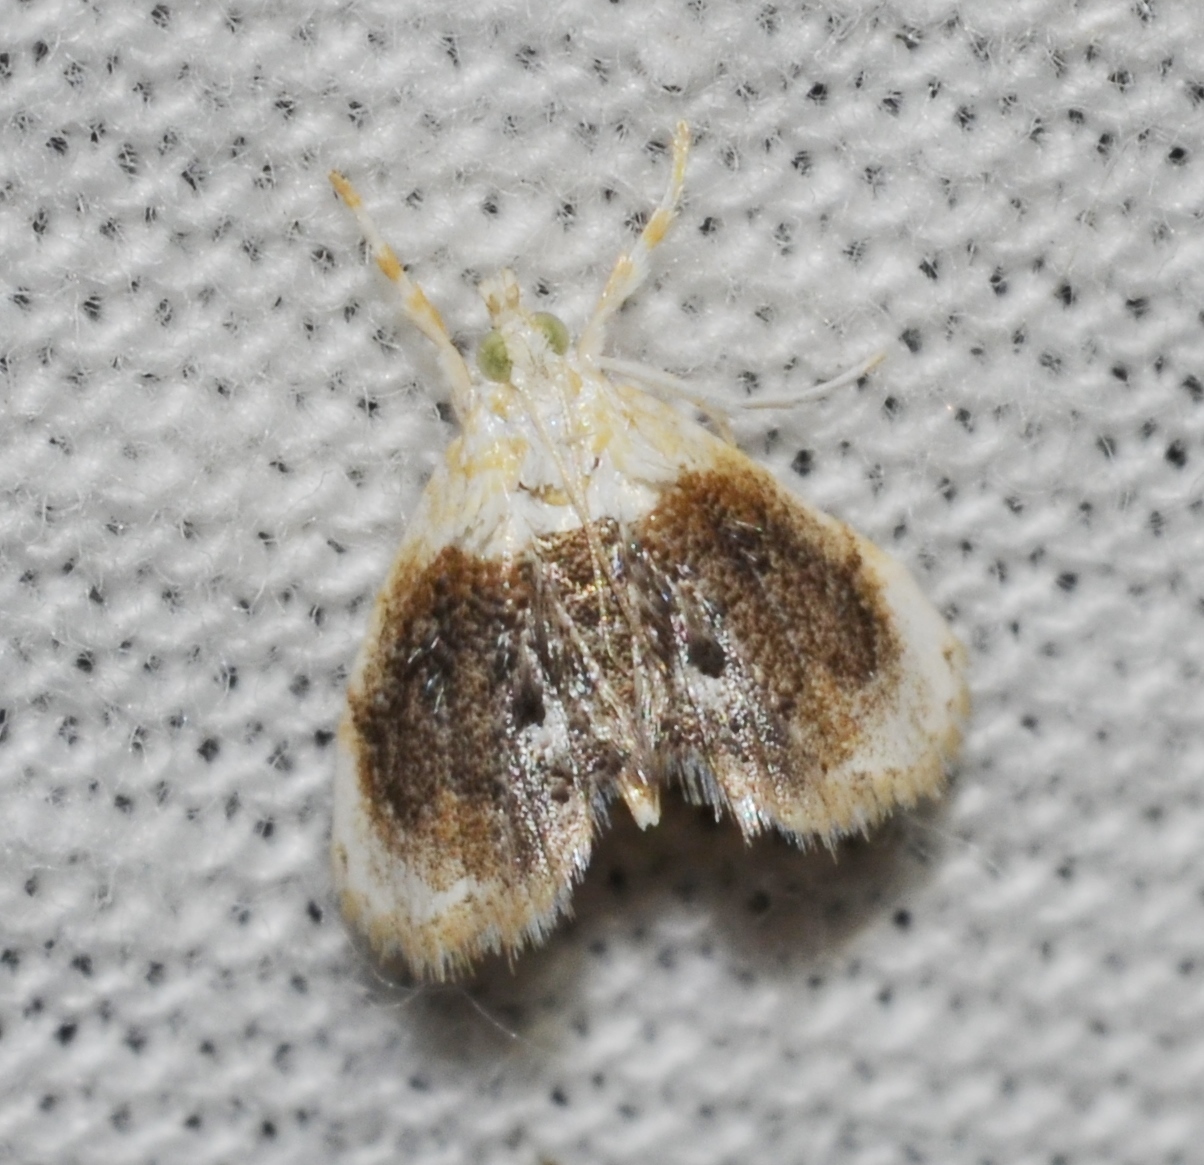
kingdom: Animalia
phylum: Arthropoda
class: Insecta
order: Lepidoptera
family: Crambidae
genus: Lipocosmodes
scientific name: Lipocosmodes fuliginosalis
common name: Sooty lipocosmodes moth
